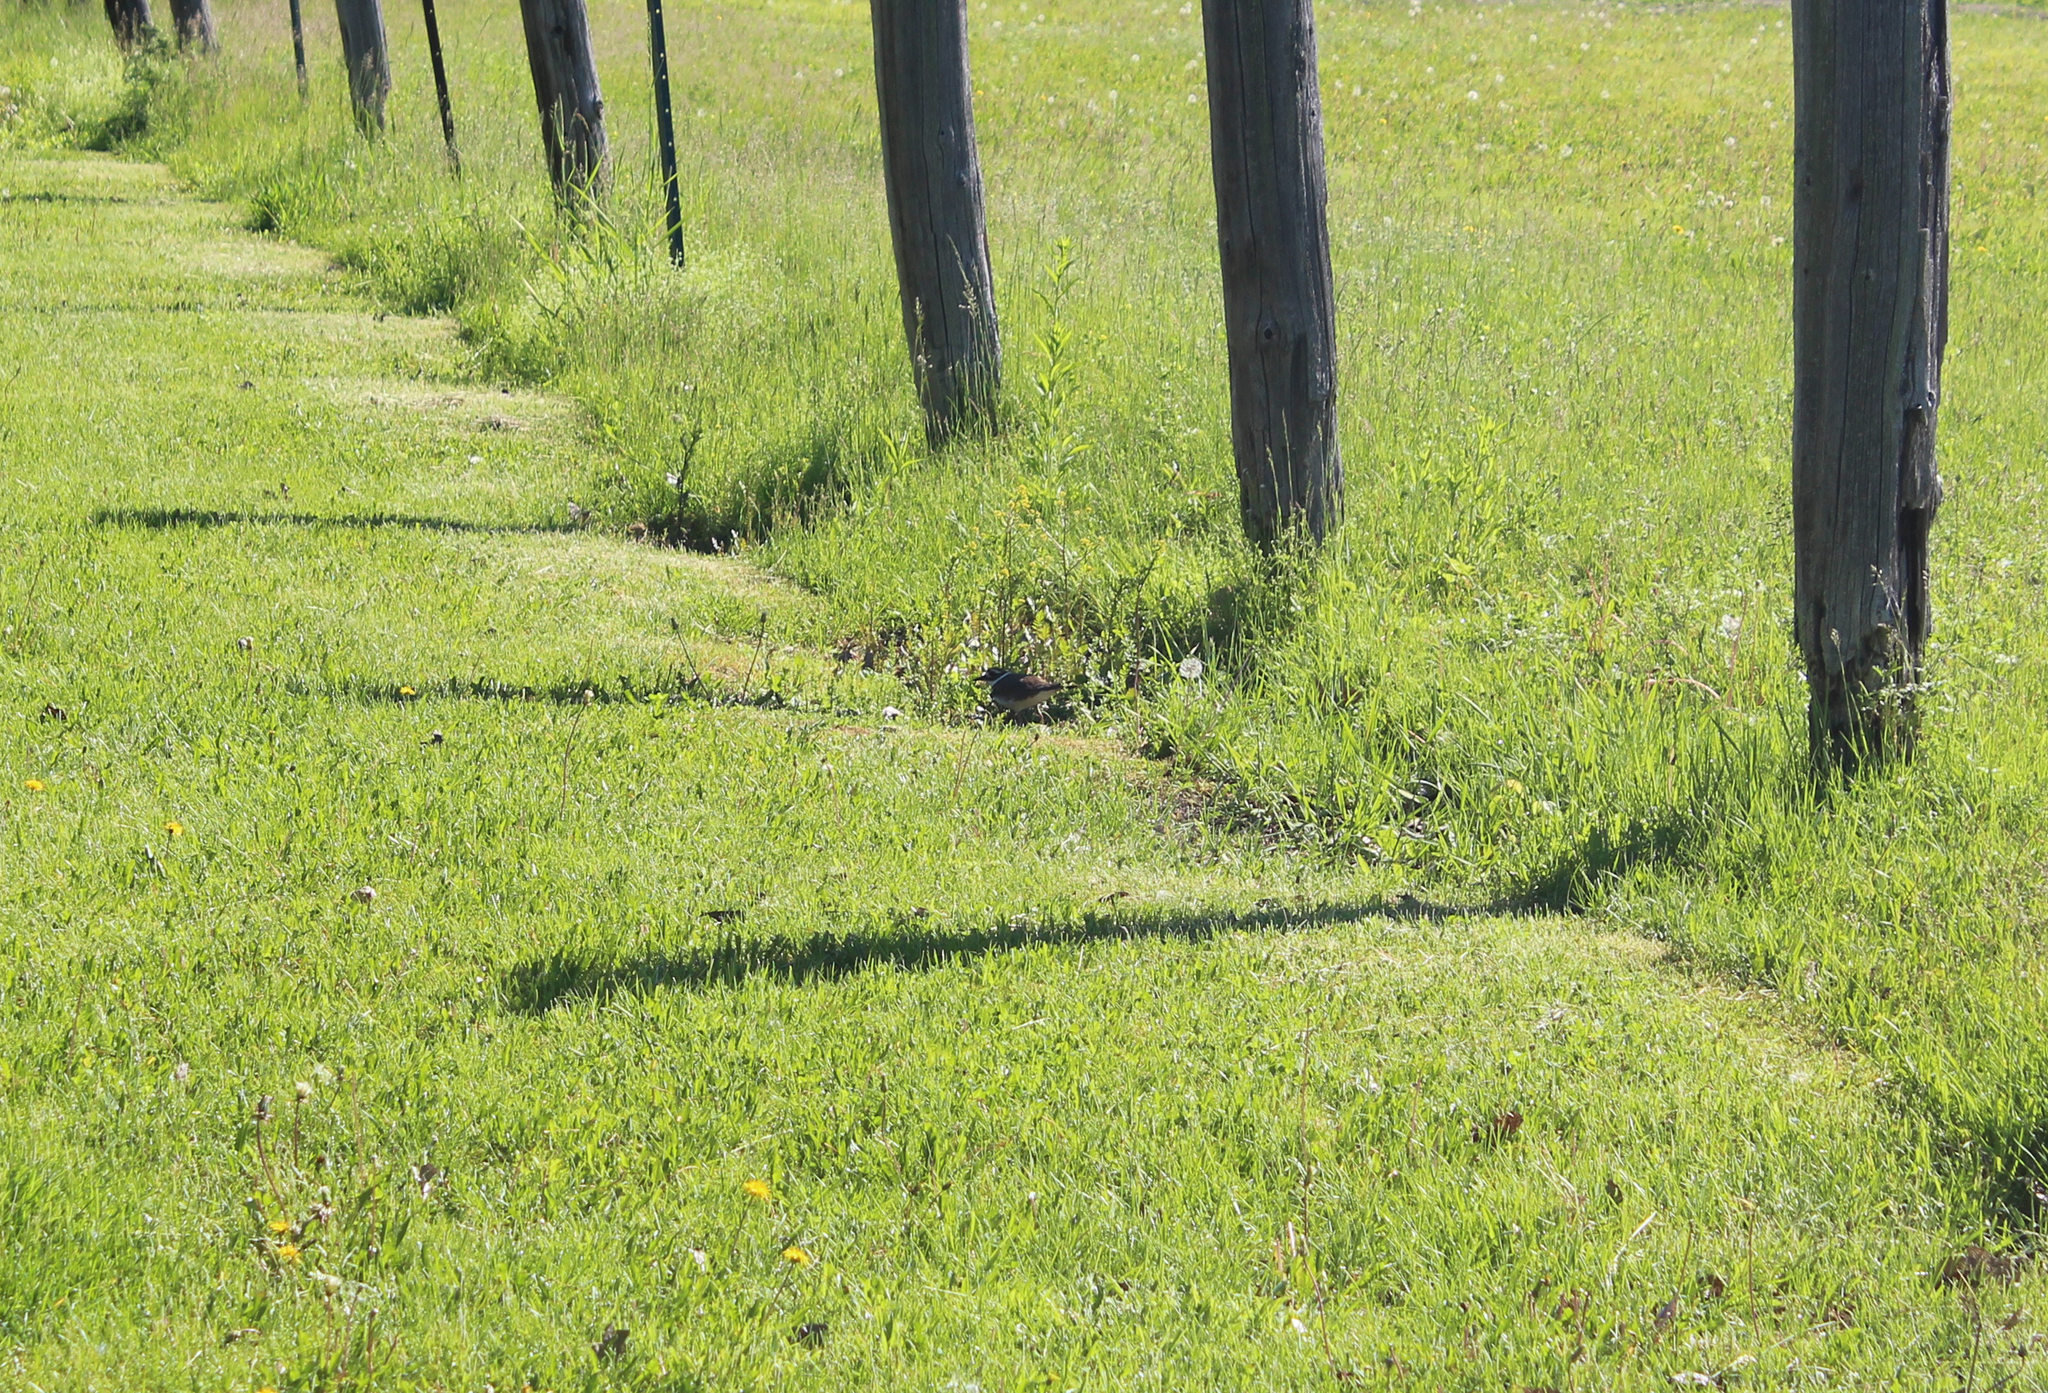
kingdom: Animalia
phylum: Chordata
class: Aves
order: Charadriiformes
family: Charadriidae
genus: Charadrius
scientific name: Charadrius vociferus
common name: Killdeer
